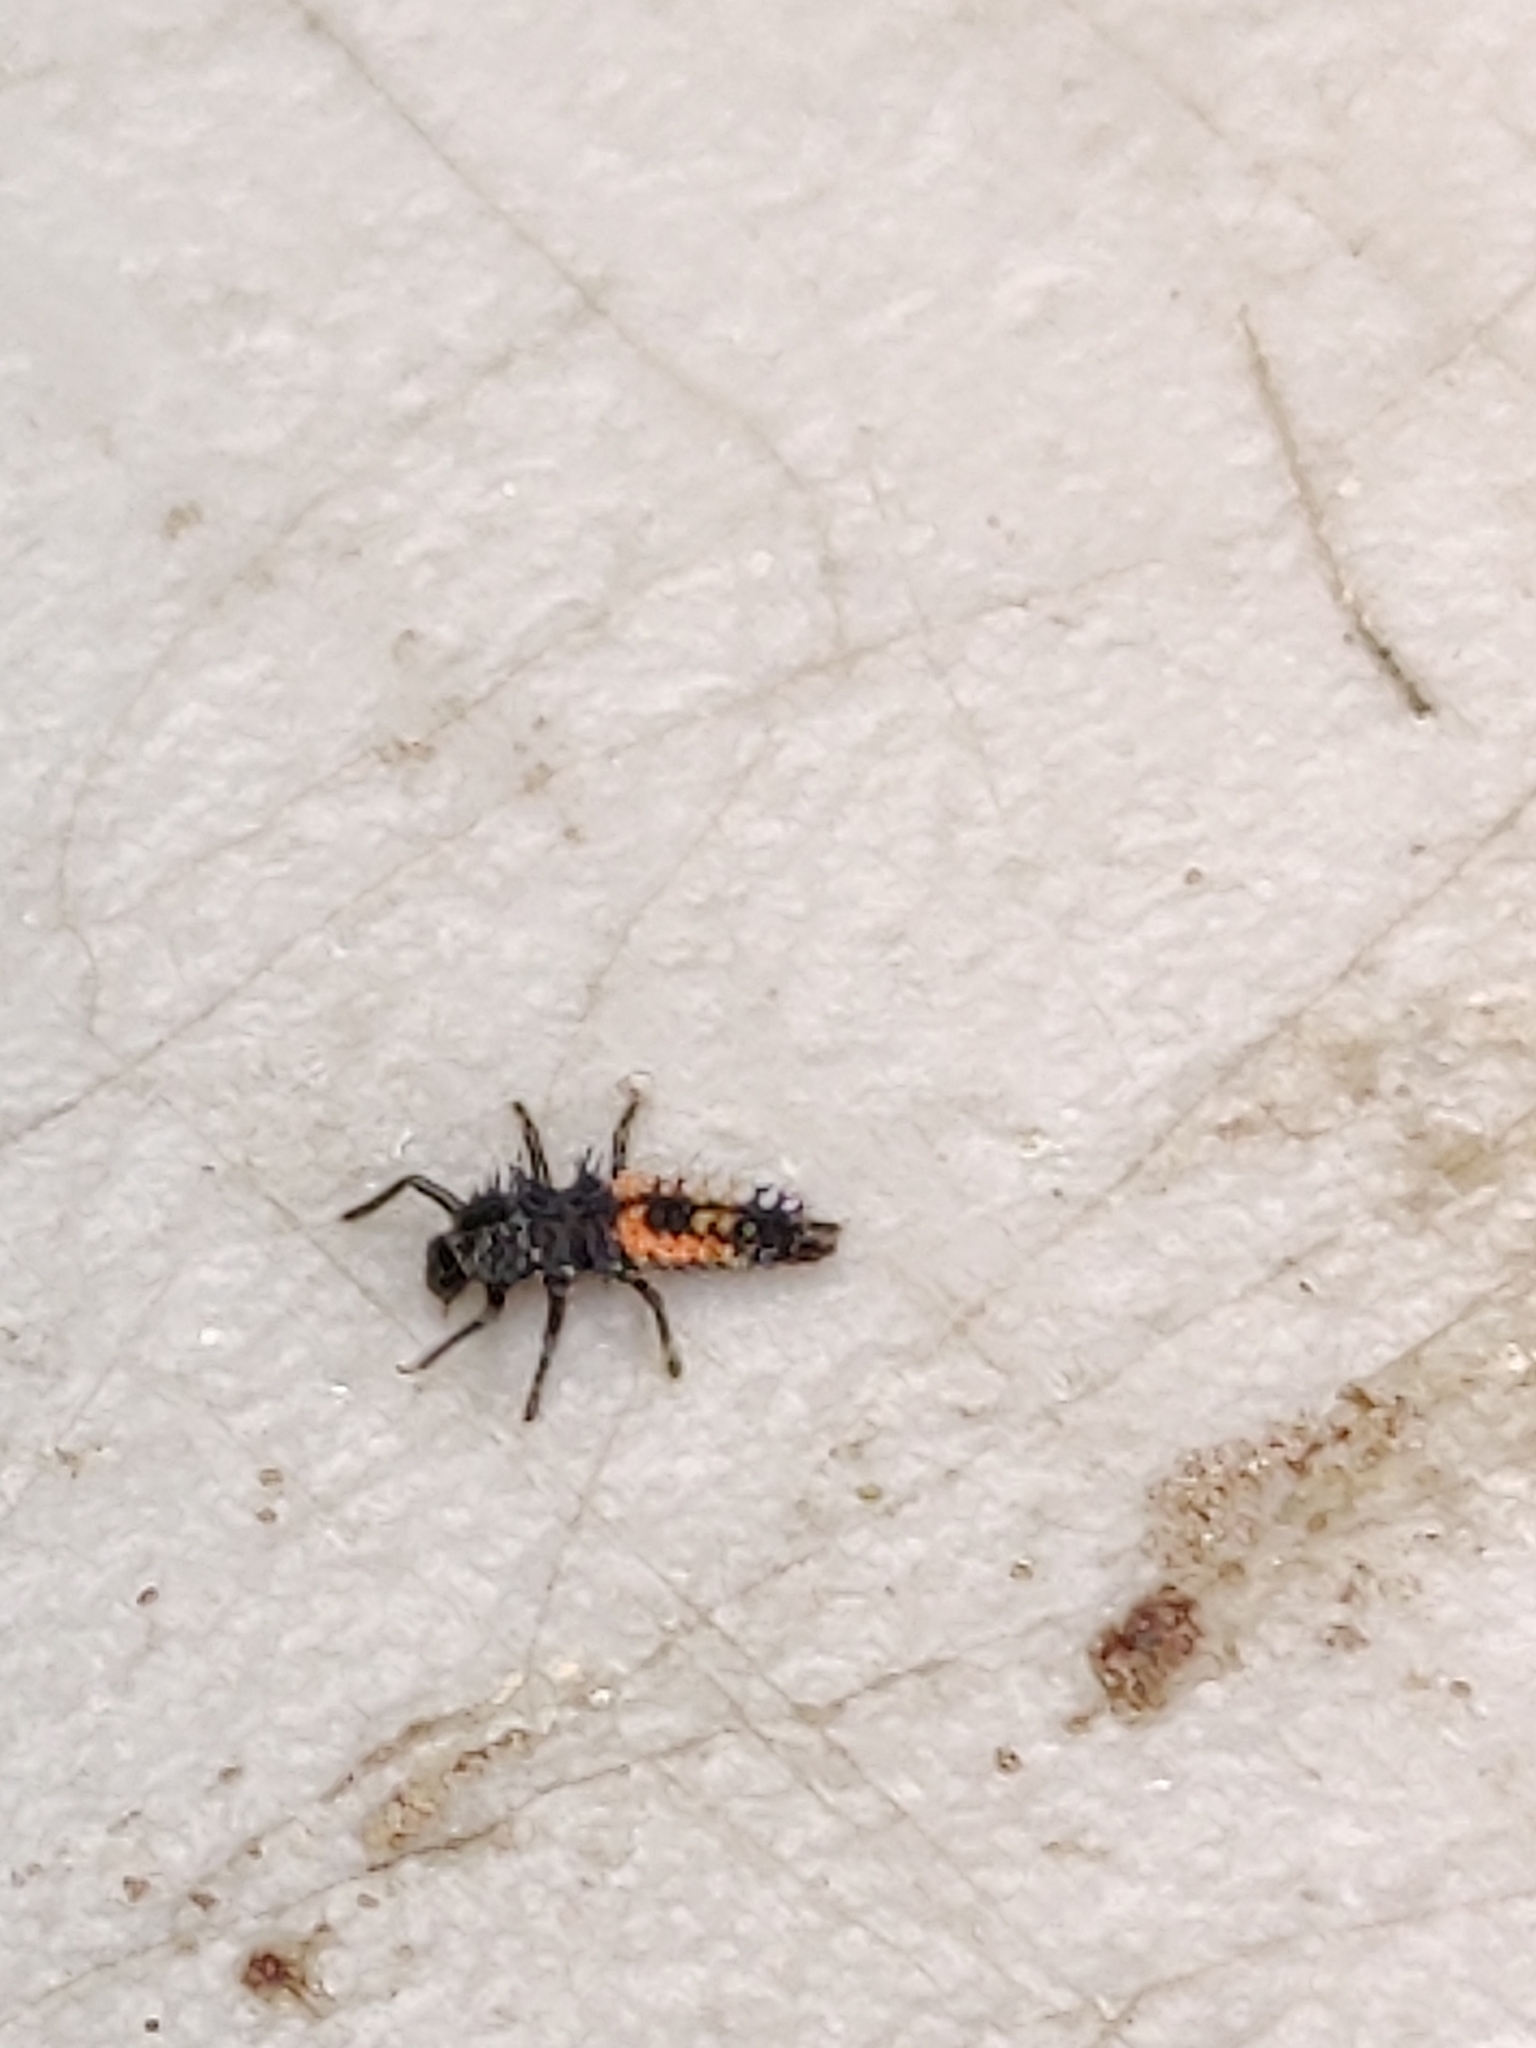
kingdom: Animalia
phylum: Arthropoda
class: Insecta
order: Coleoptera
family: Coccinellidae
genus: Harmonia
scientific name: Harmonia axyridis
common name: Harlequin ladybird
